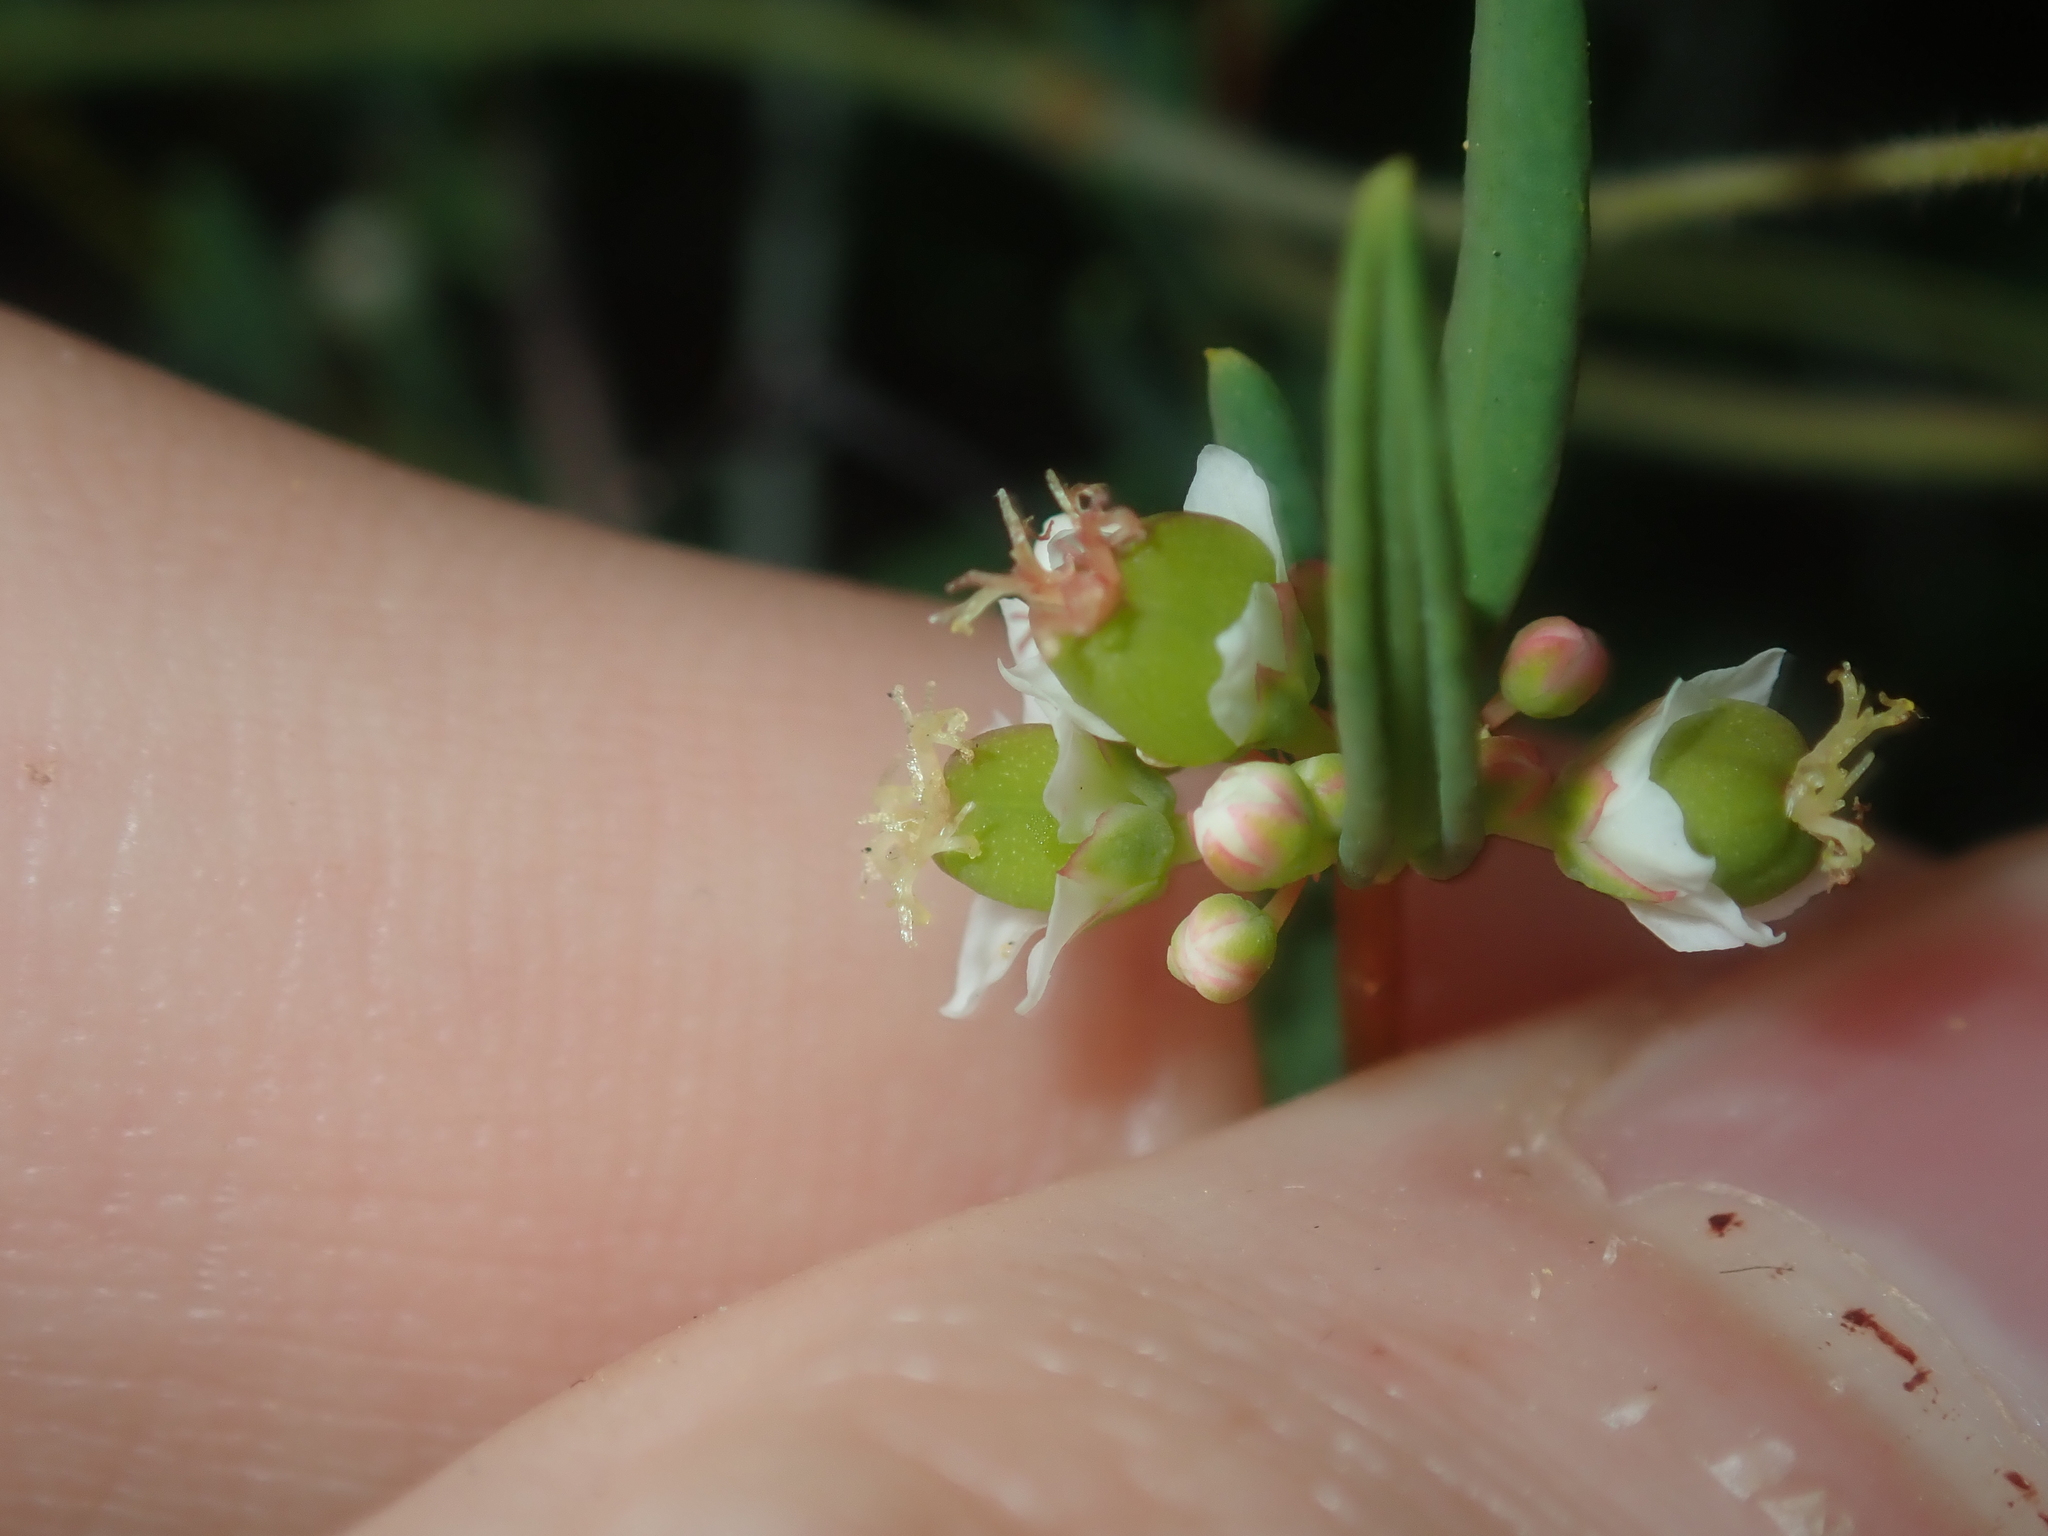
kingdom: Plantae
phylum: Tracheophyta
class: Magnoliopsida
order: Malpighiales
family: Euphorbiaceae
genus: Monotaxis
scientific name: Monotaxis bracteata
